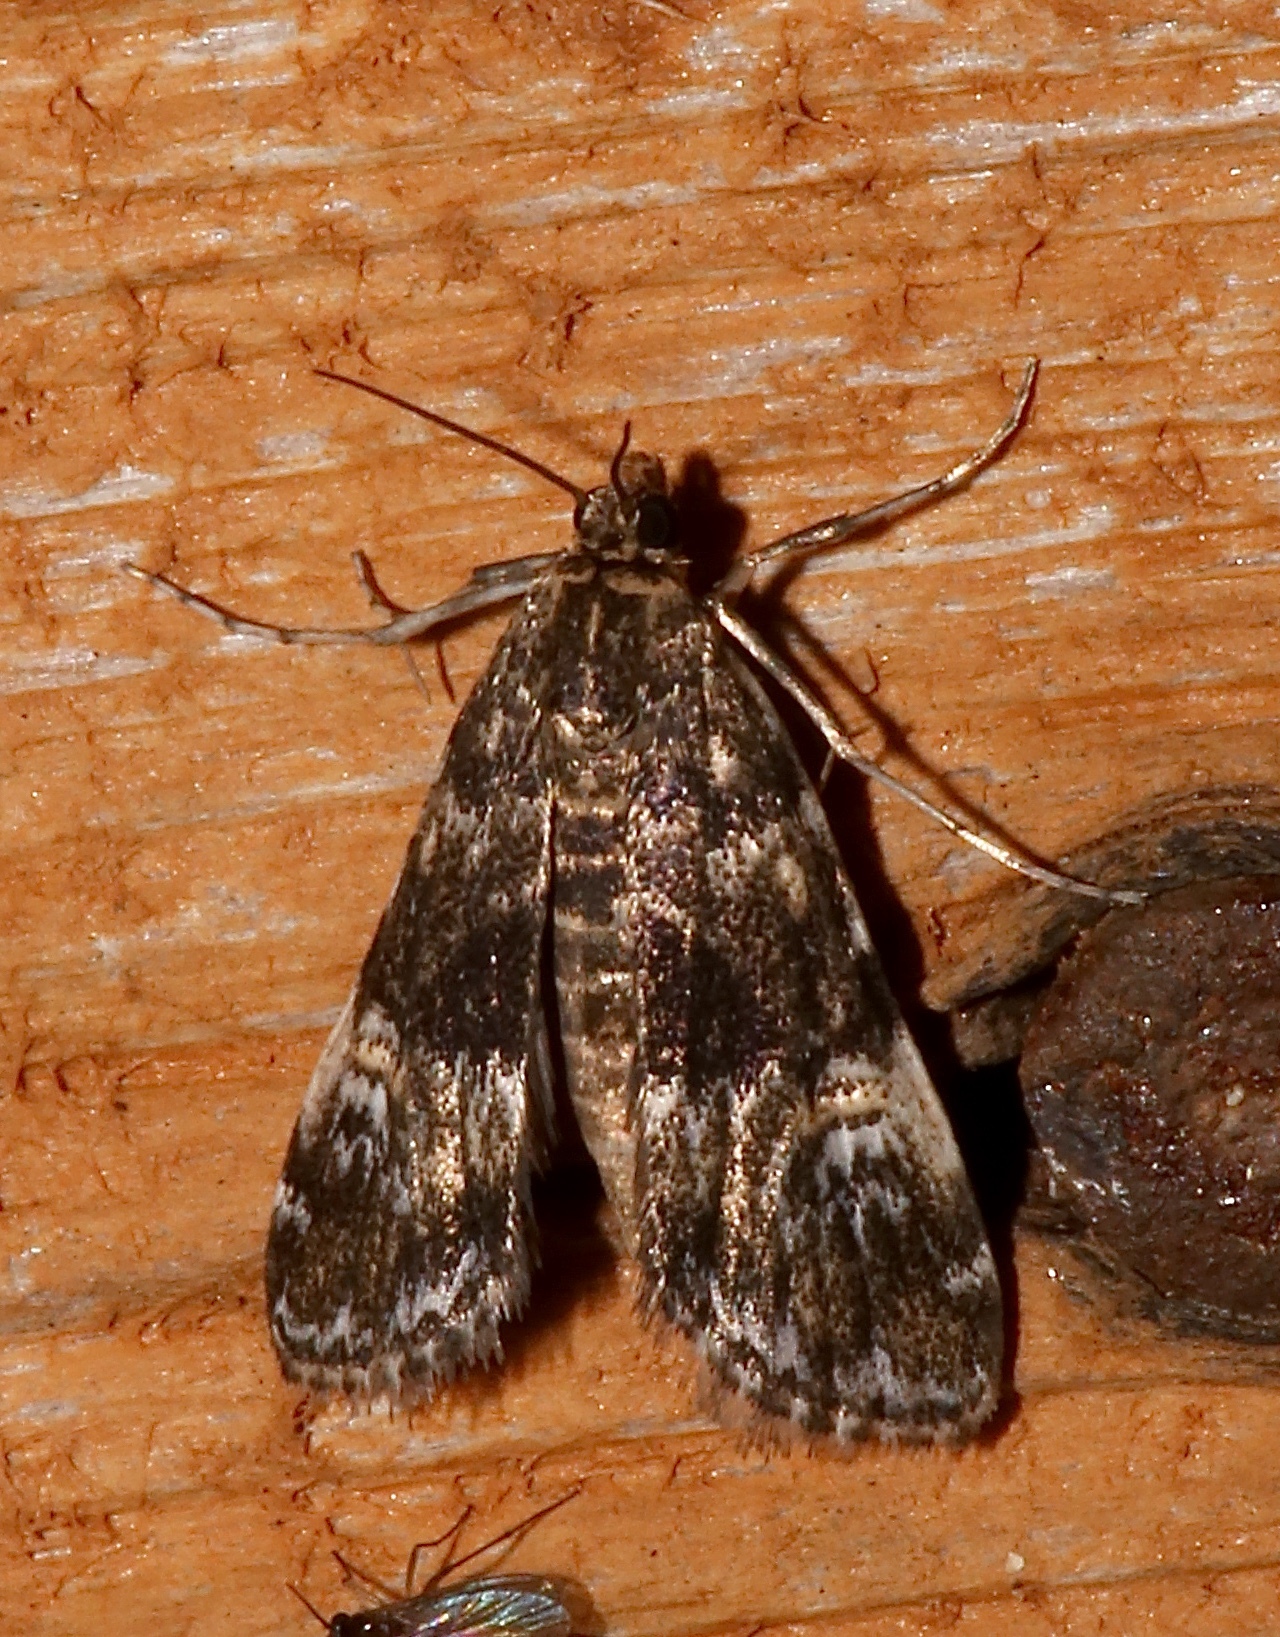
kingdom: Animalia
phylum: Arthropoda
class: Insecta
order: Lepidoptera
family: Crambidae
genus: Elophila
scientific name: Elophila obliteralis
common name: Waterlily leafcutter moth
